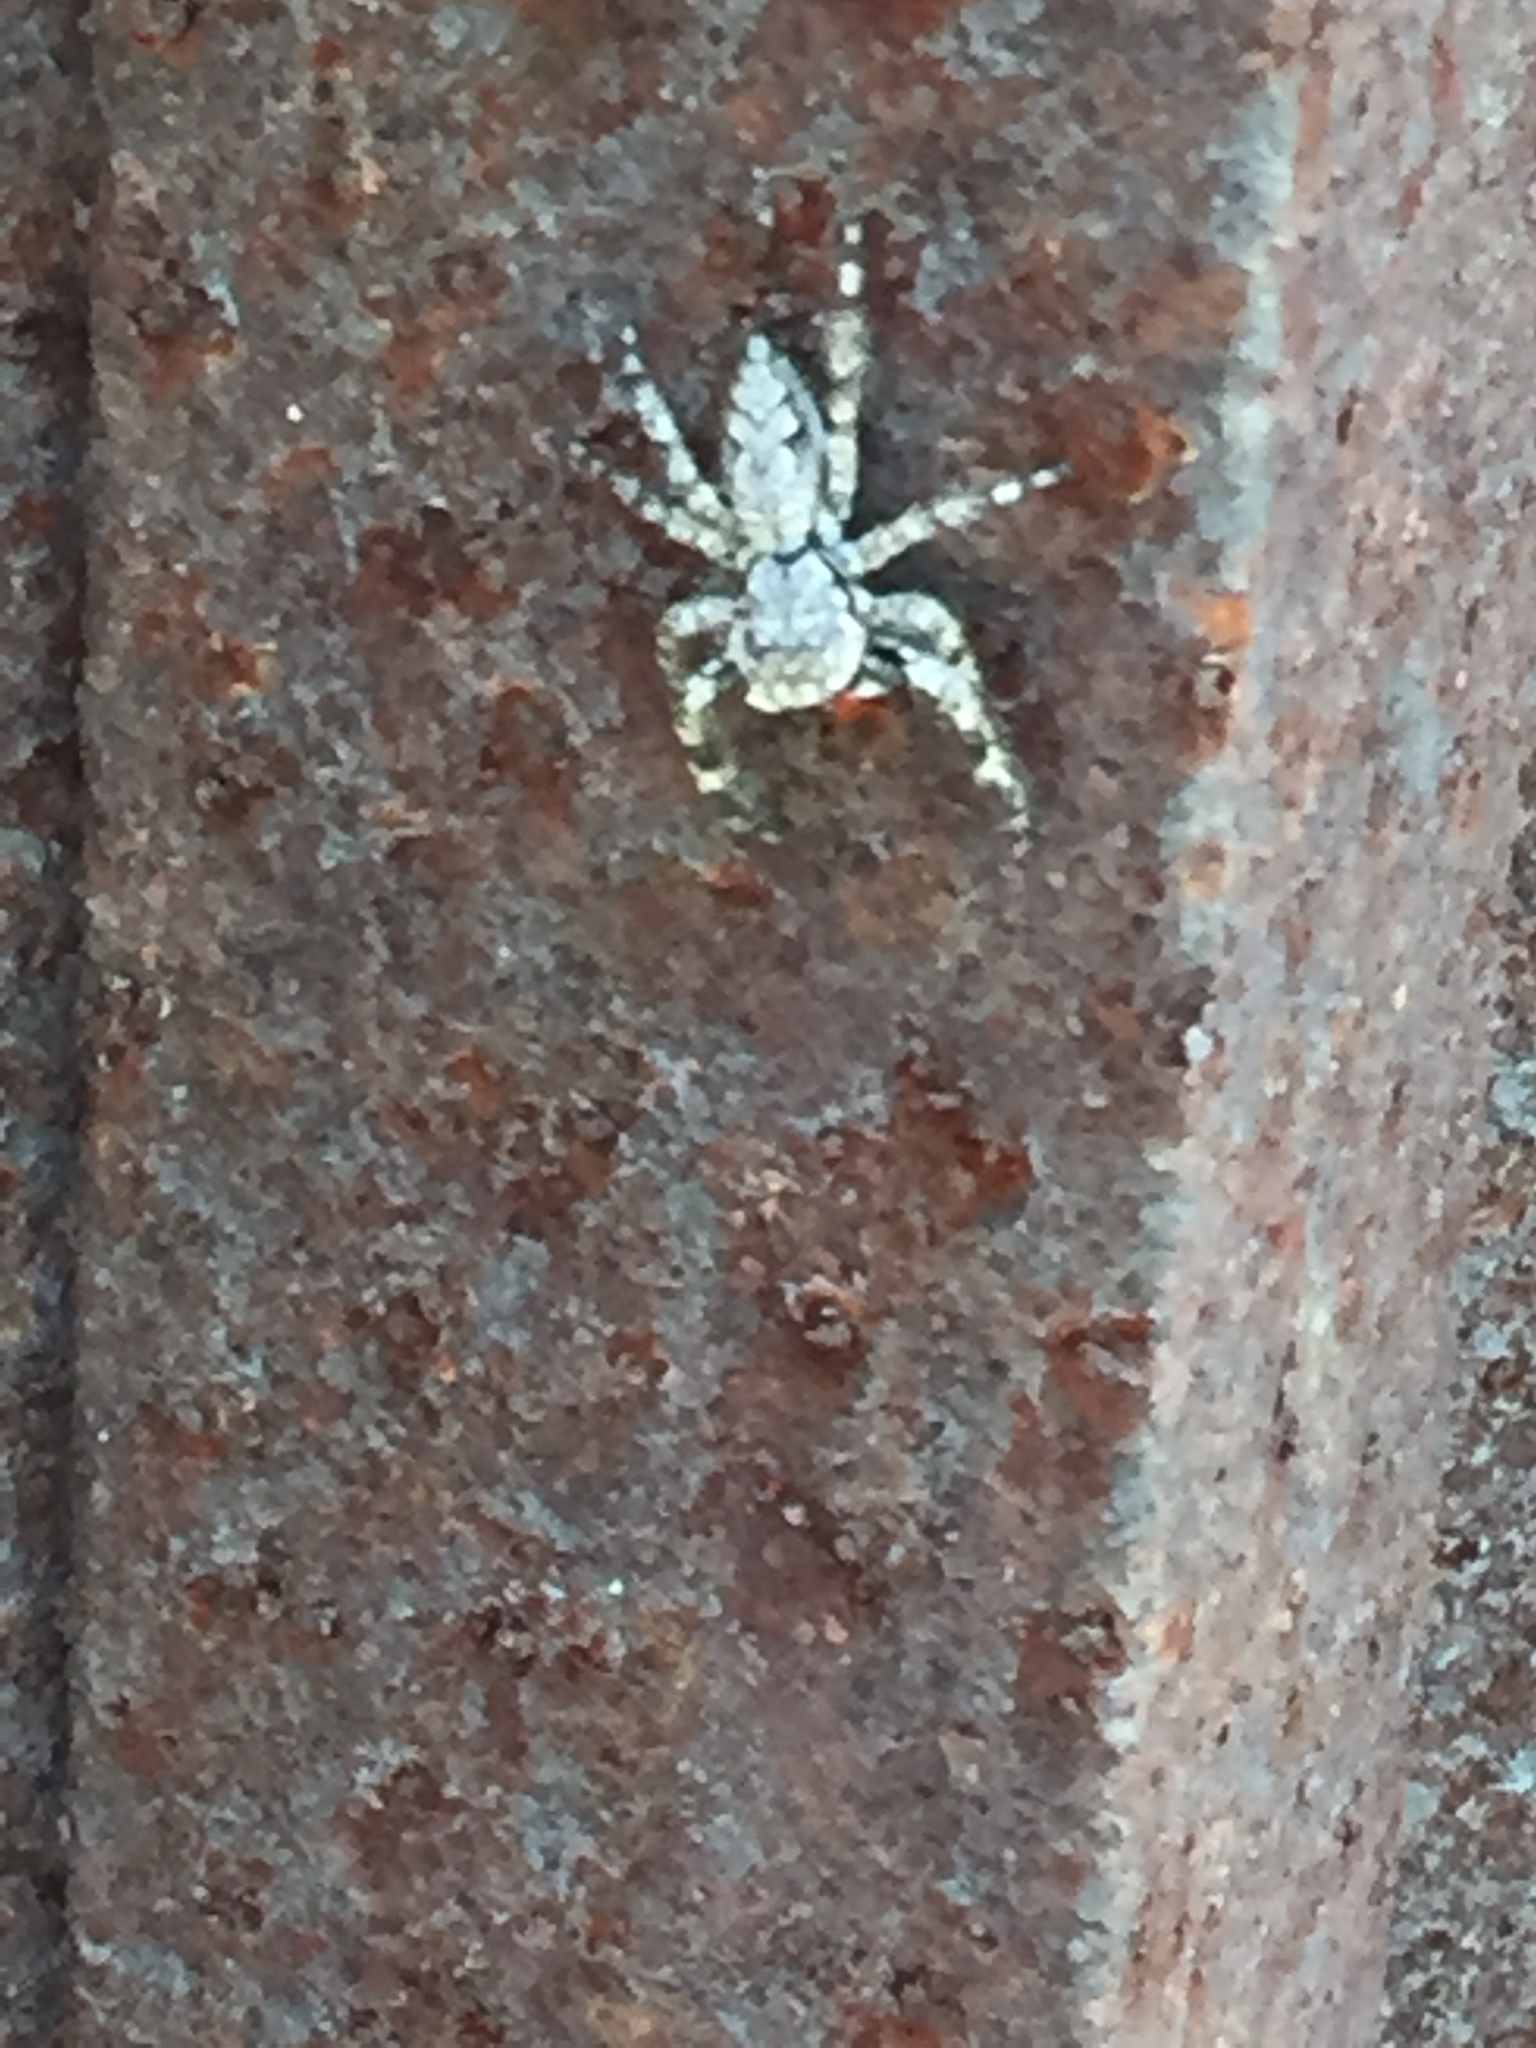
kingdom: Animalia
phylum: Arthropoda
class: Arachnida
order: Araneae
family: Salticidae
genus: Platycryptus
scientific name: Platycryptus undatus
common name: Tan jumping spider
